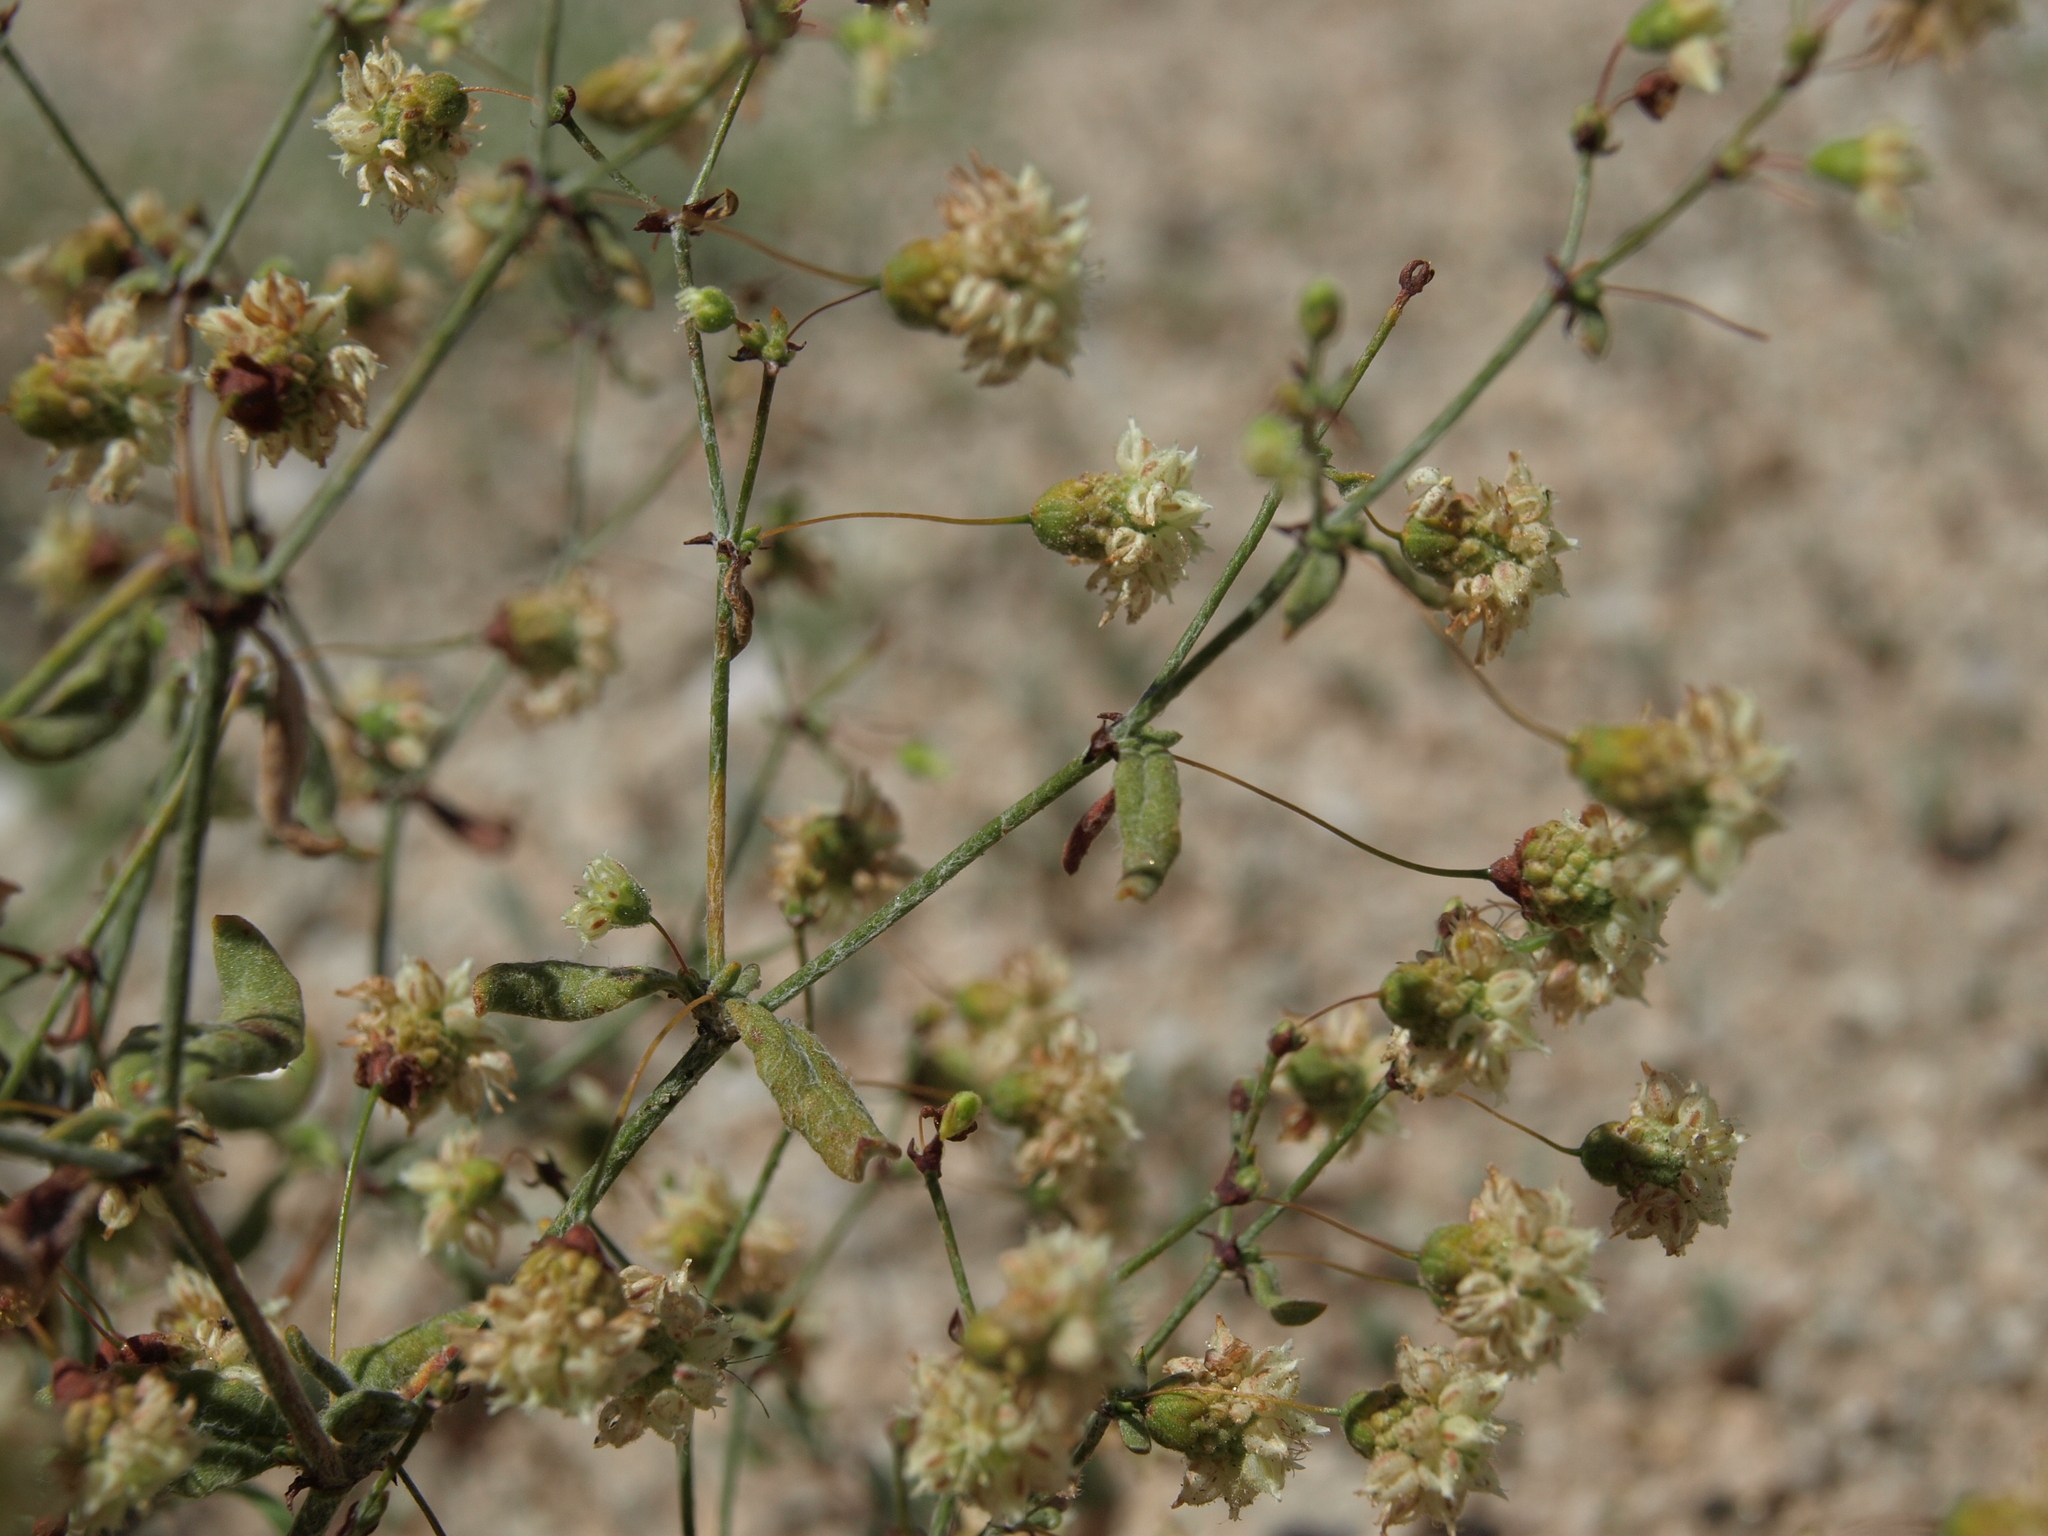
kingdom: Plantae
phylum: Tracheophyta
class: Magnoliopsida
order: Caryophyllales
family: Polygonaceae
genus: Eriogonum
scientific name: Eriogonum maculatum
